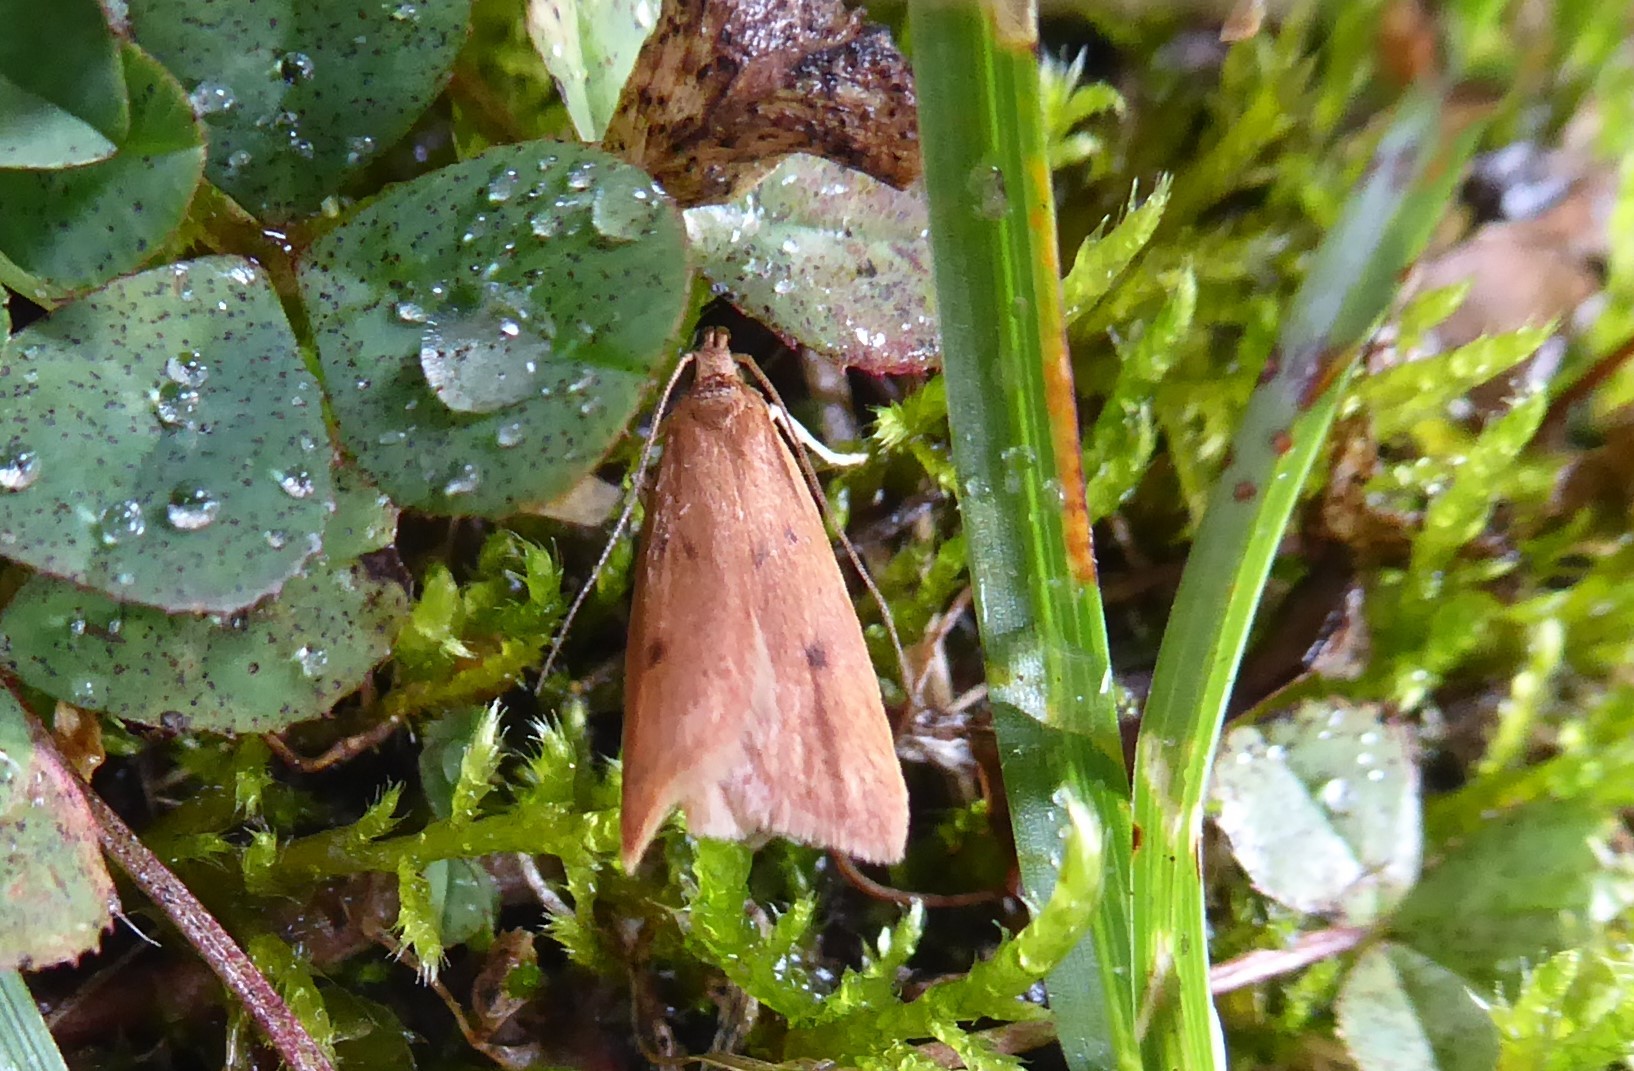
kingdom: Animalia
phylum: Arthropoda
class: Insecta
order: Lepidoptera
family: Oecophoridae
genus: Gymnobathra
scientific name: Gymnobathra sarcoxantha
